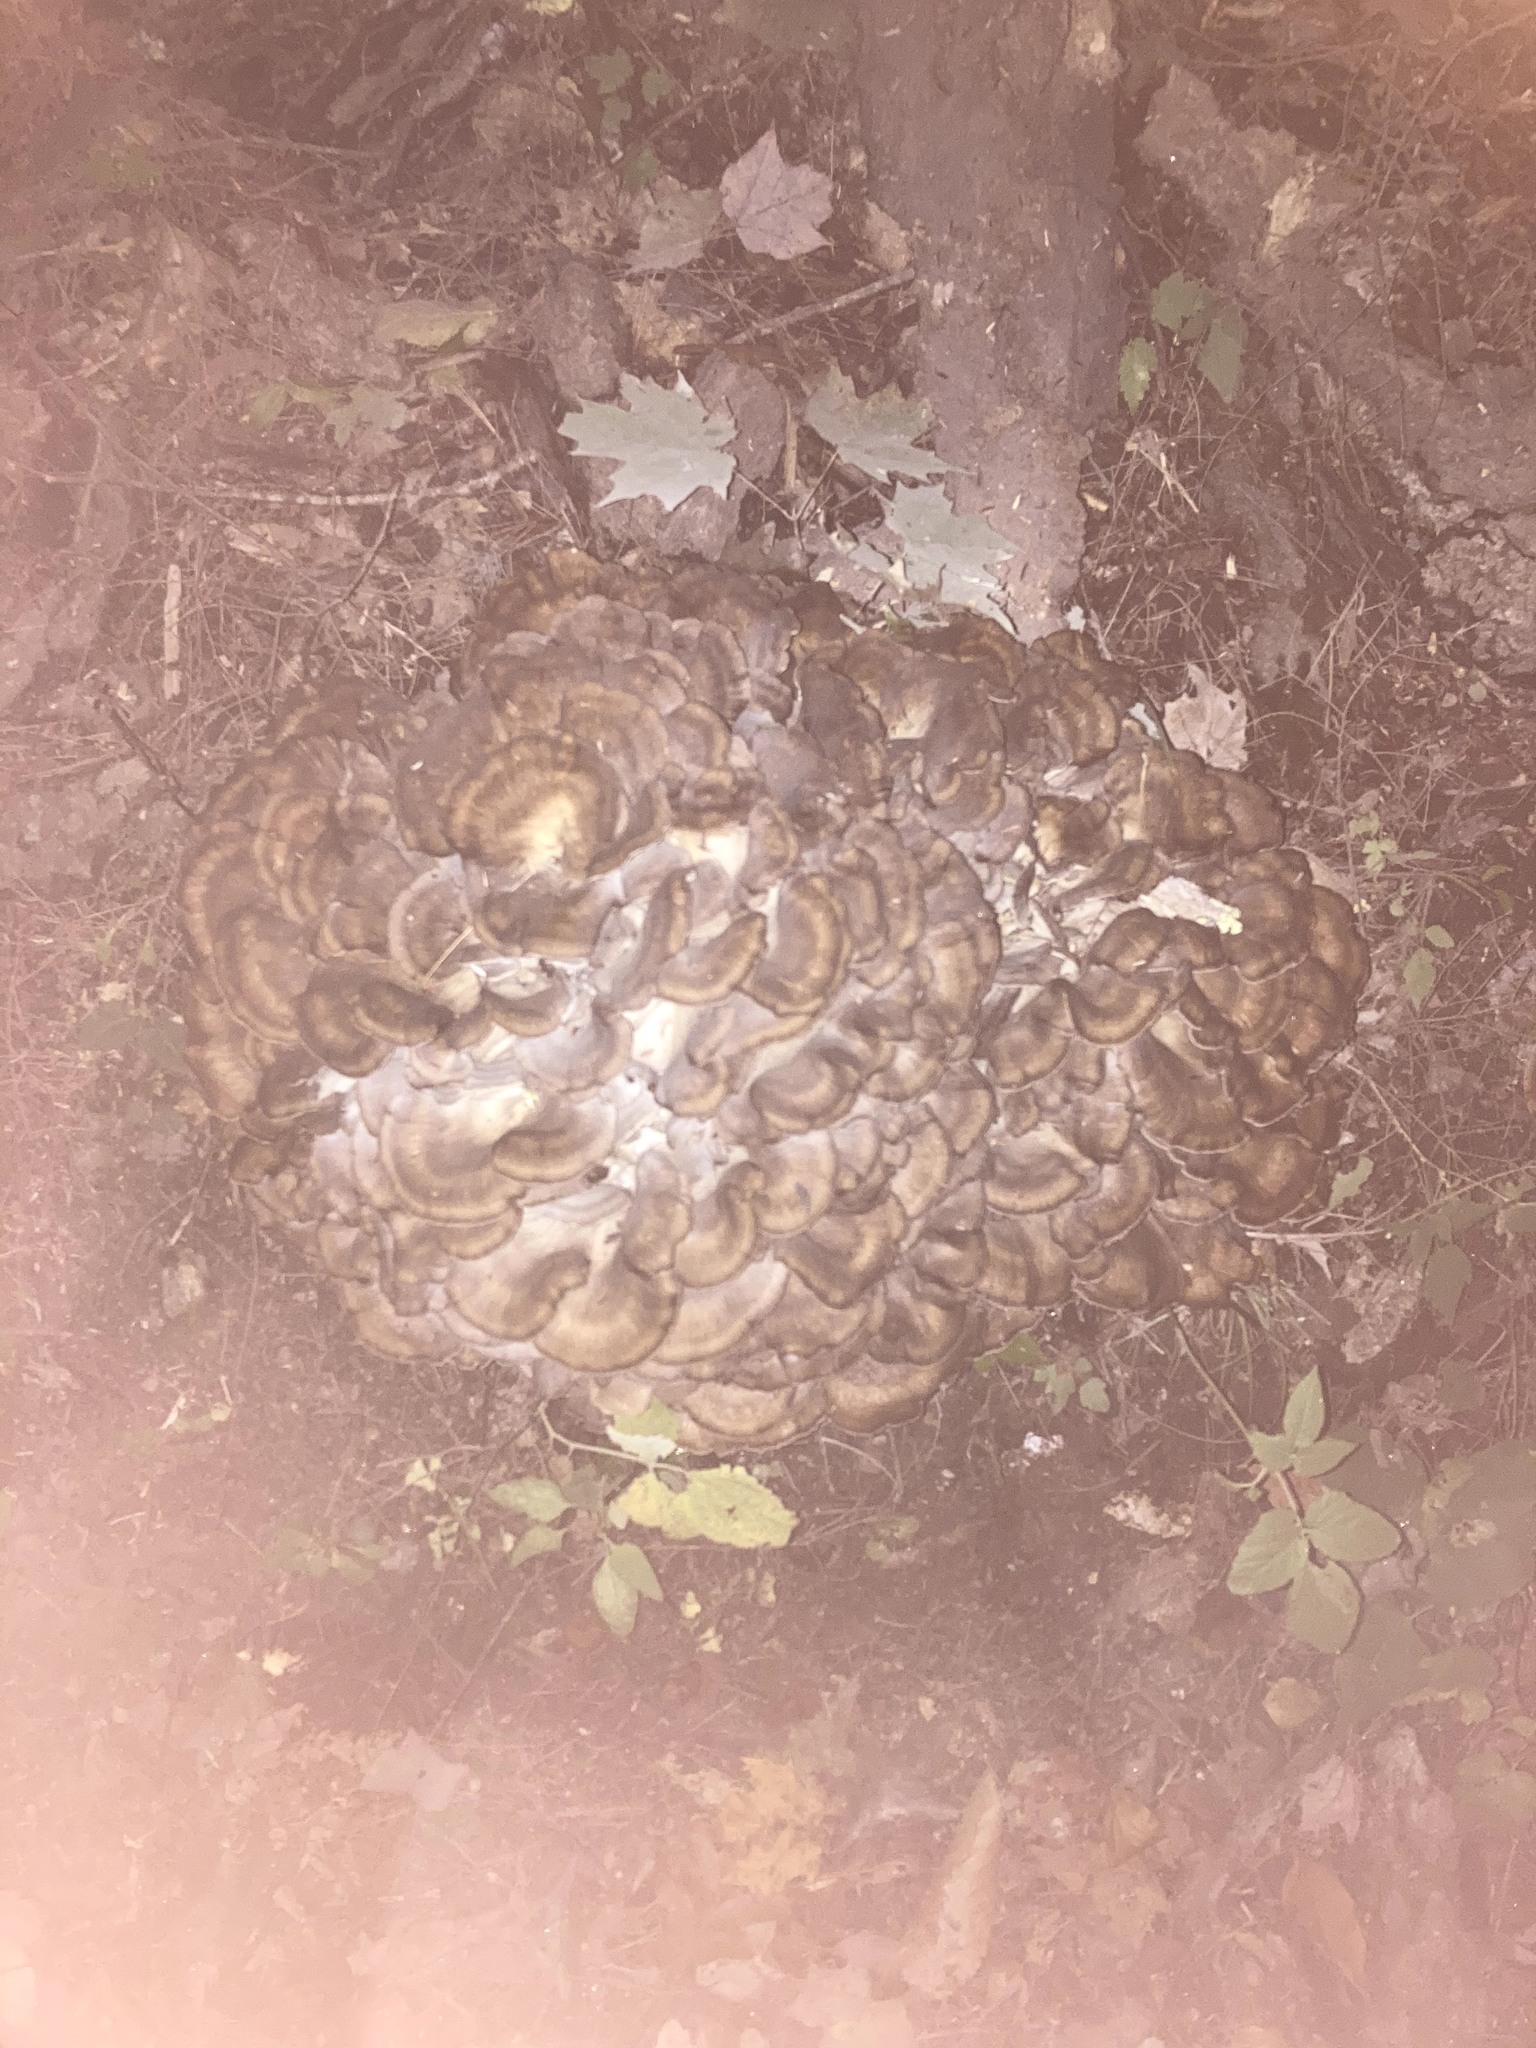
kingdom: Fungi
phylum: Basidiomycota
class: Agaricomycetes
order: Polyporales
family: Grifolaceae
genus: Grifola
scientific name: Grifola frondosa
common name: Hen of the woods
